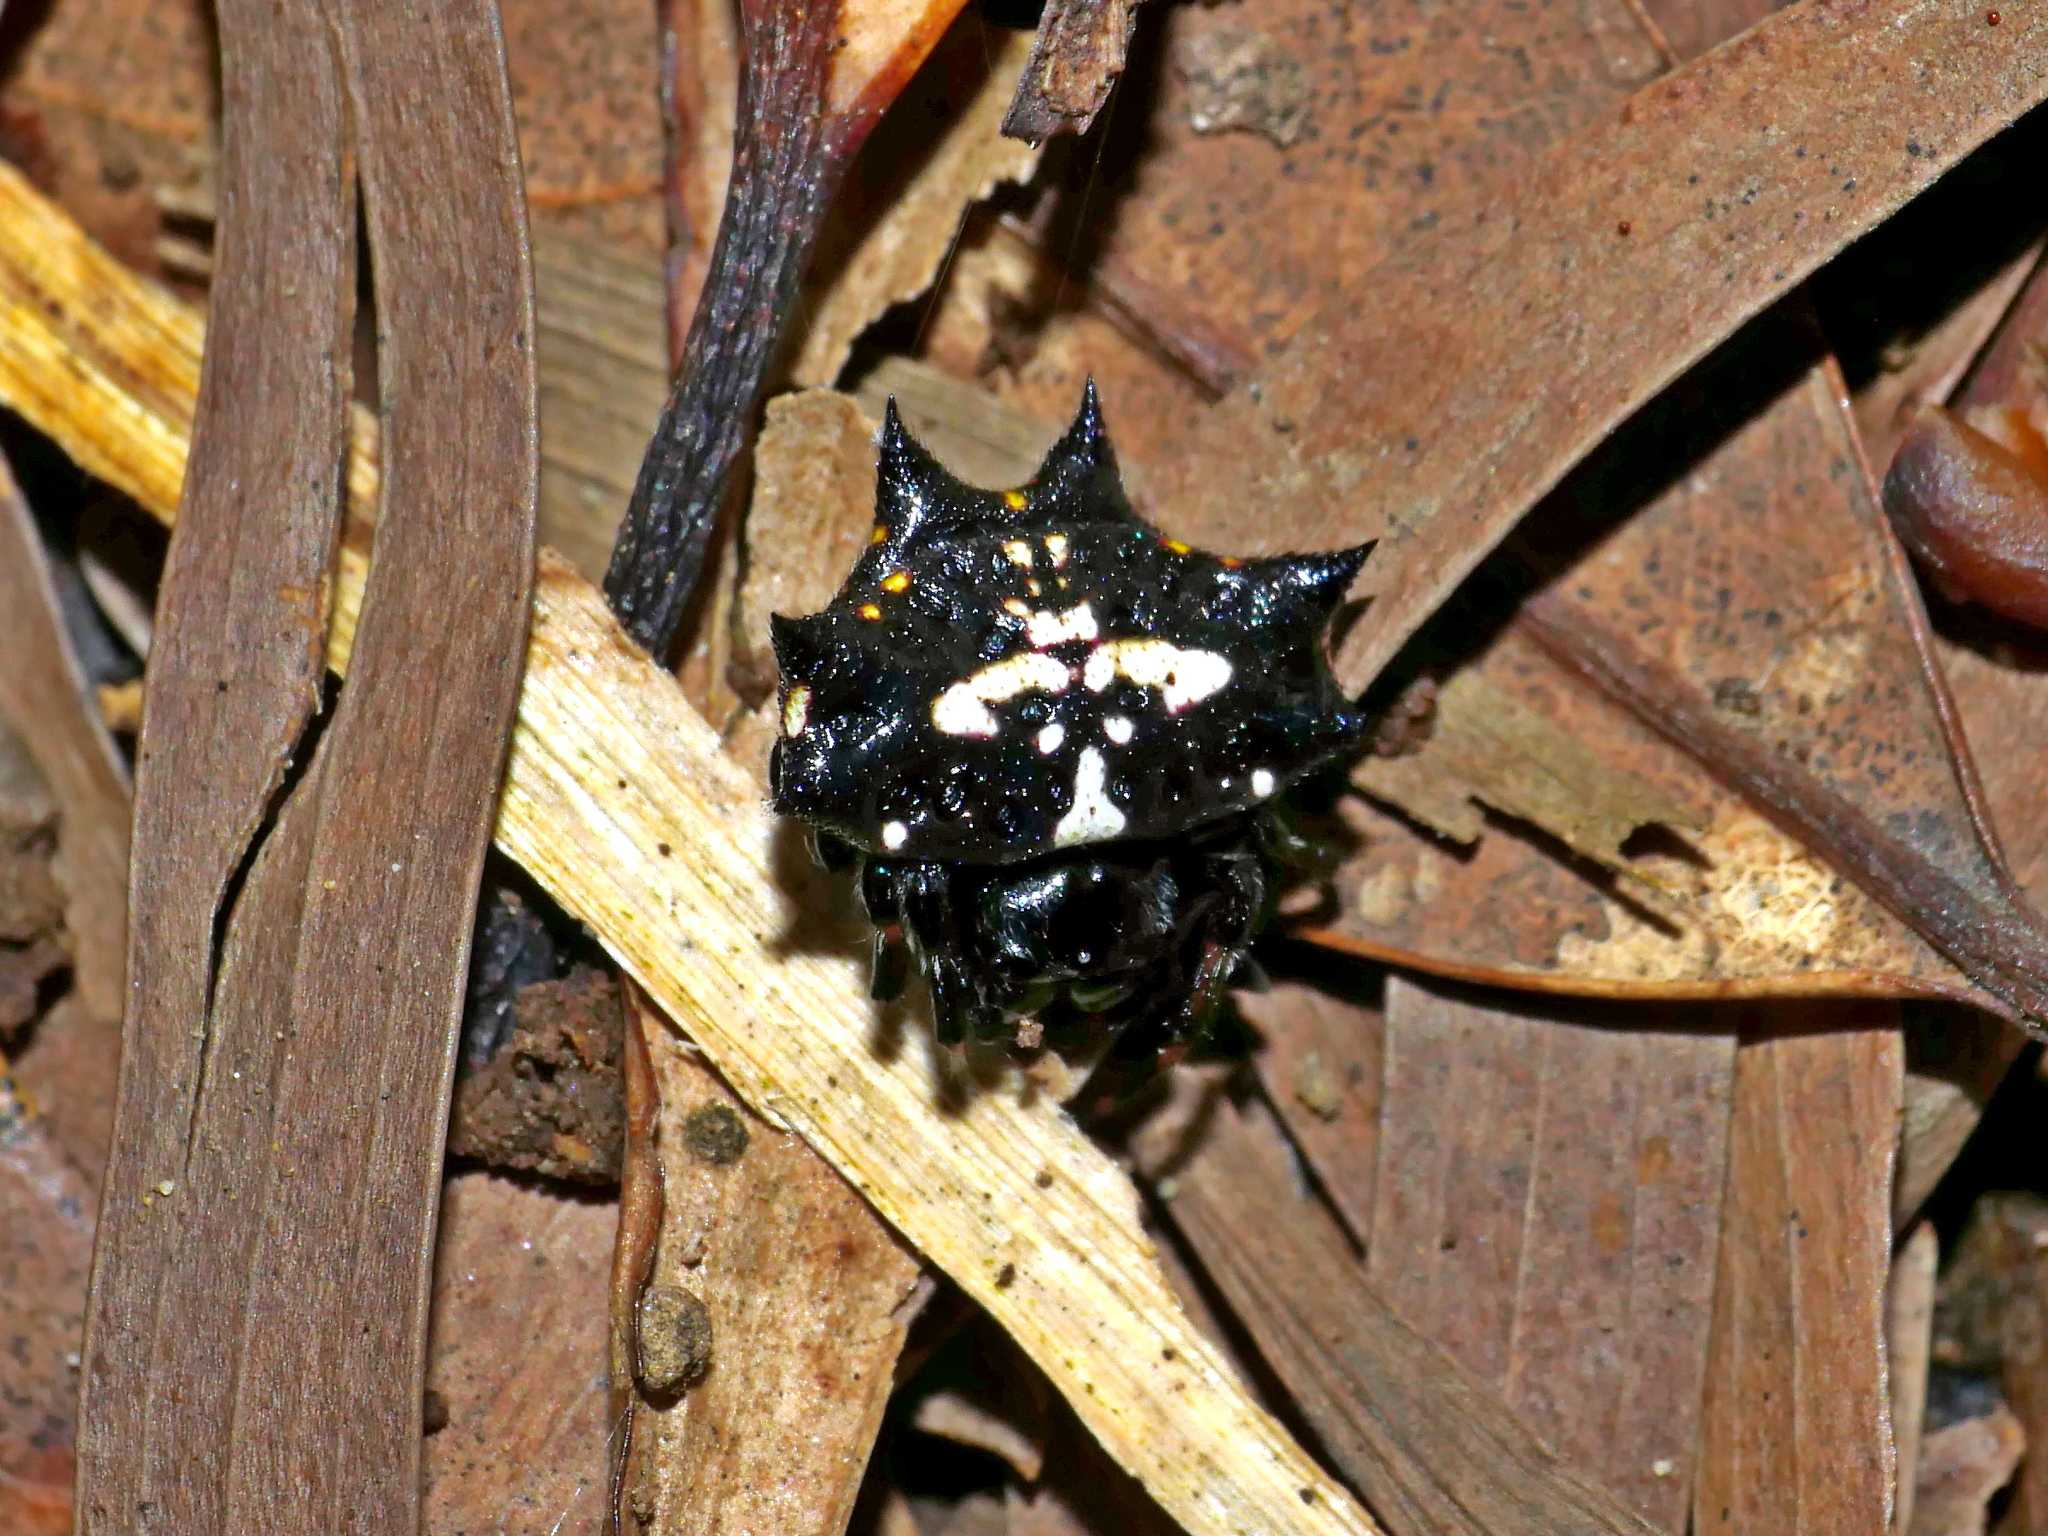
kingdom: Animalia
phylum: Arthropoda
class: Arachnida
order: Araneae
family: Araneidae
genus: Gasteracantha
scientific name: Gasteracantha kuhli
